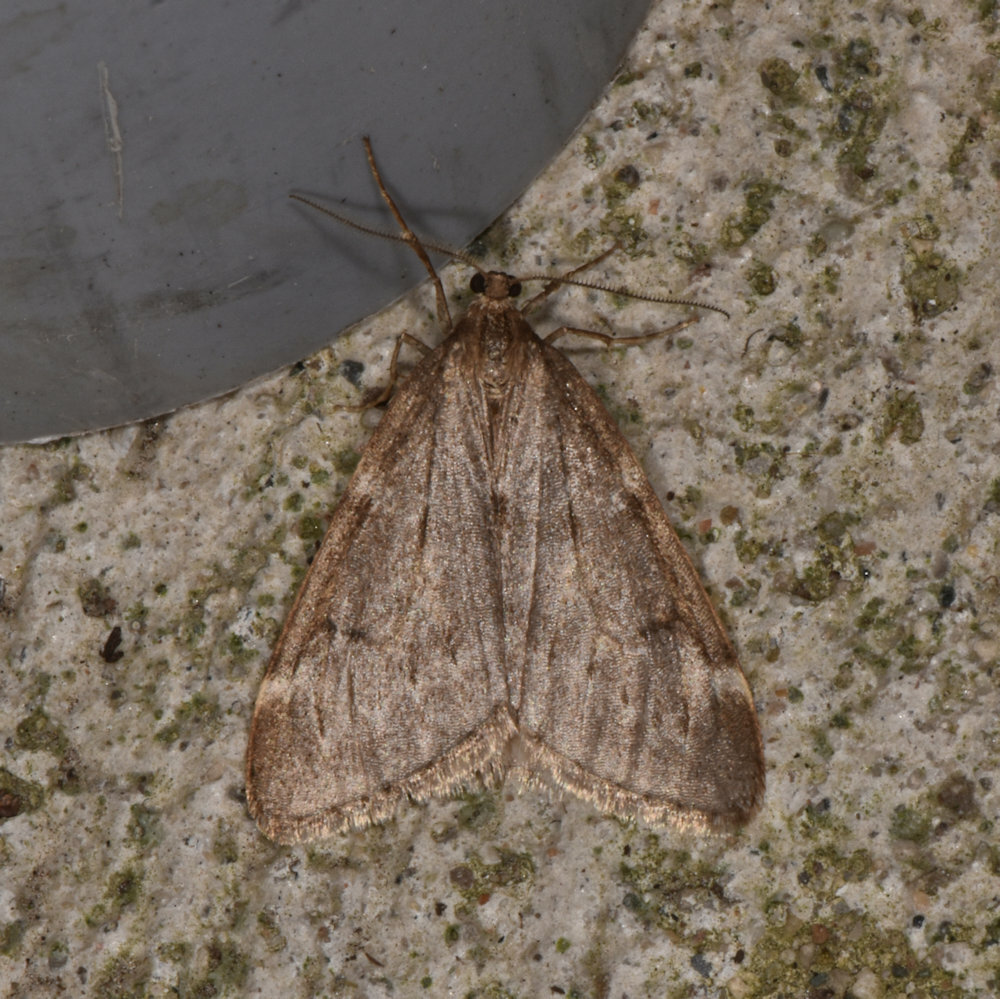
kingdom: Animalia
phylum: Arthropoda
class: Insecta
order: Lepidoptera
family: Geometridae
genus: Alsophila
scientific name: Alsophila pometaria
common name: Fall cankerworm
